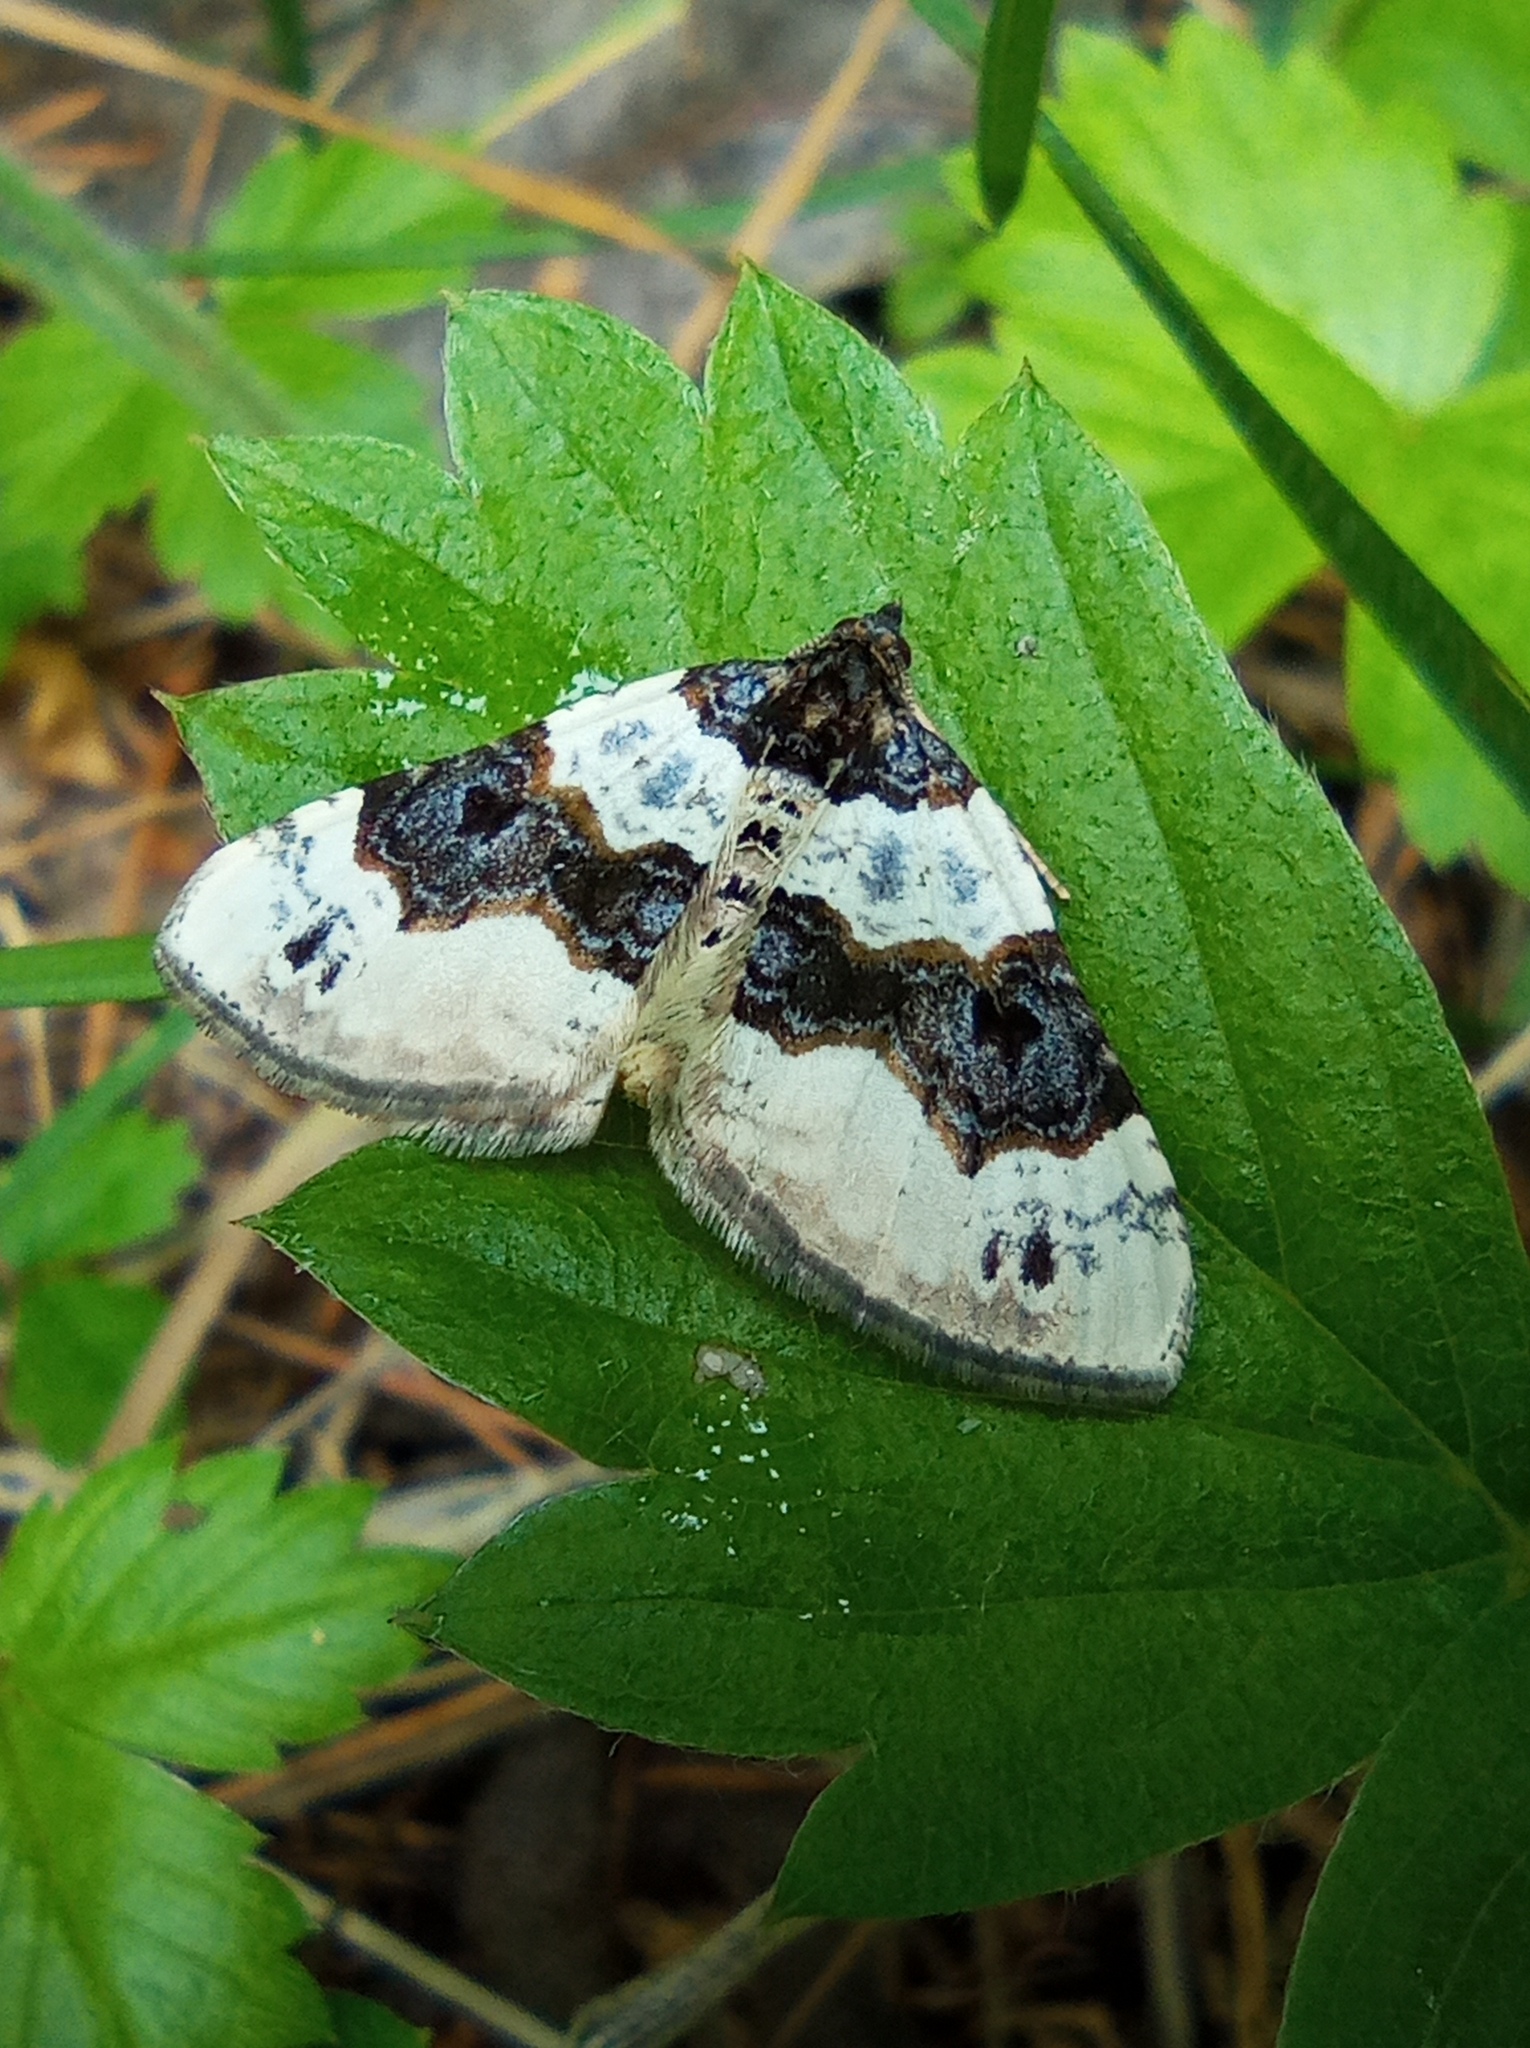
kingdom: Animalia
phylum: Arthropoda
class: Insecta
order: Lepidoptera
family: Geometridae
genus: Cosmorhoe
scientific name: Cosmorhoe ocellata
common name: Purple bar
